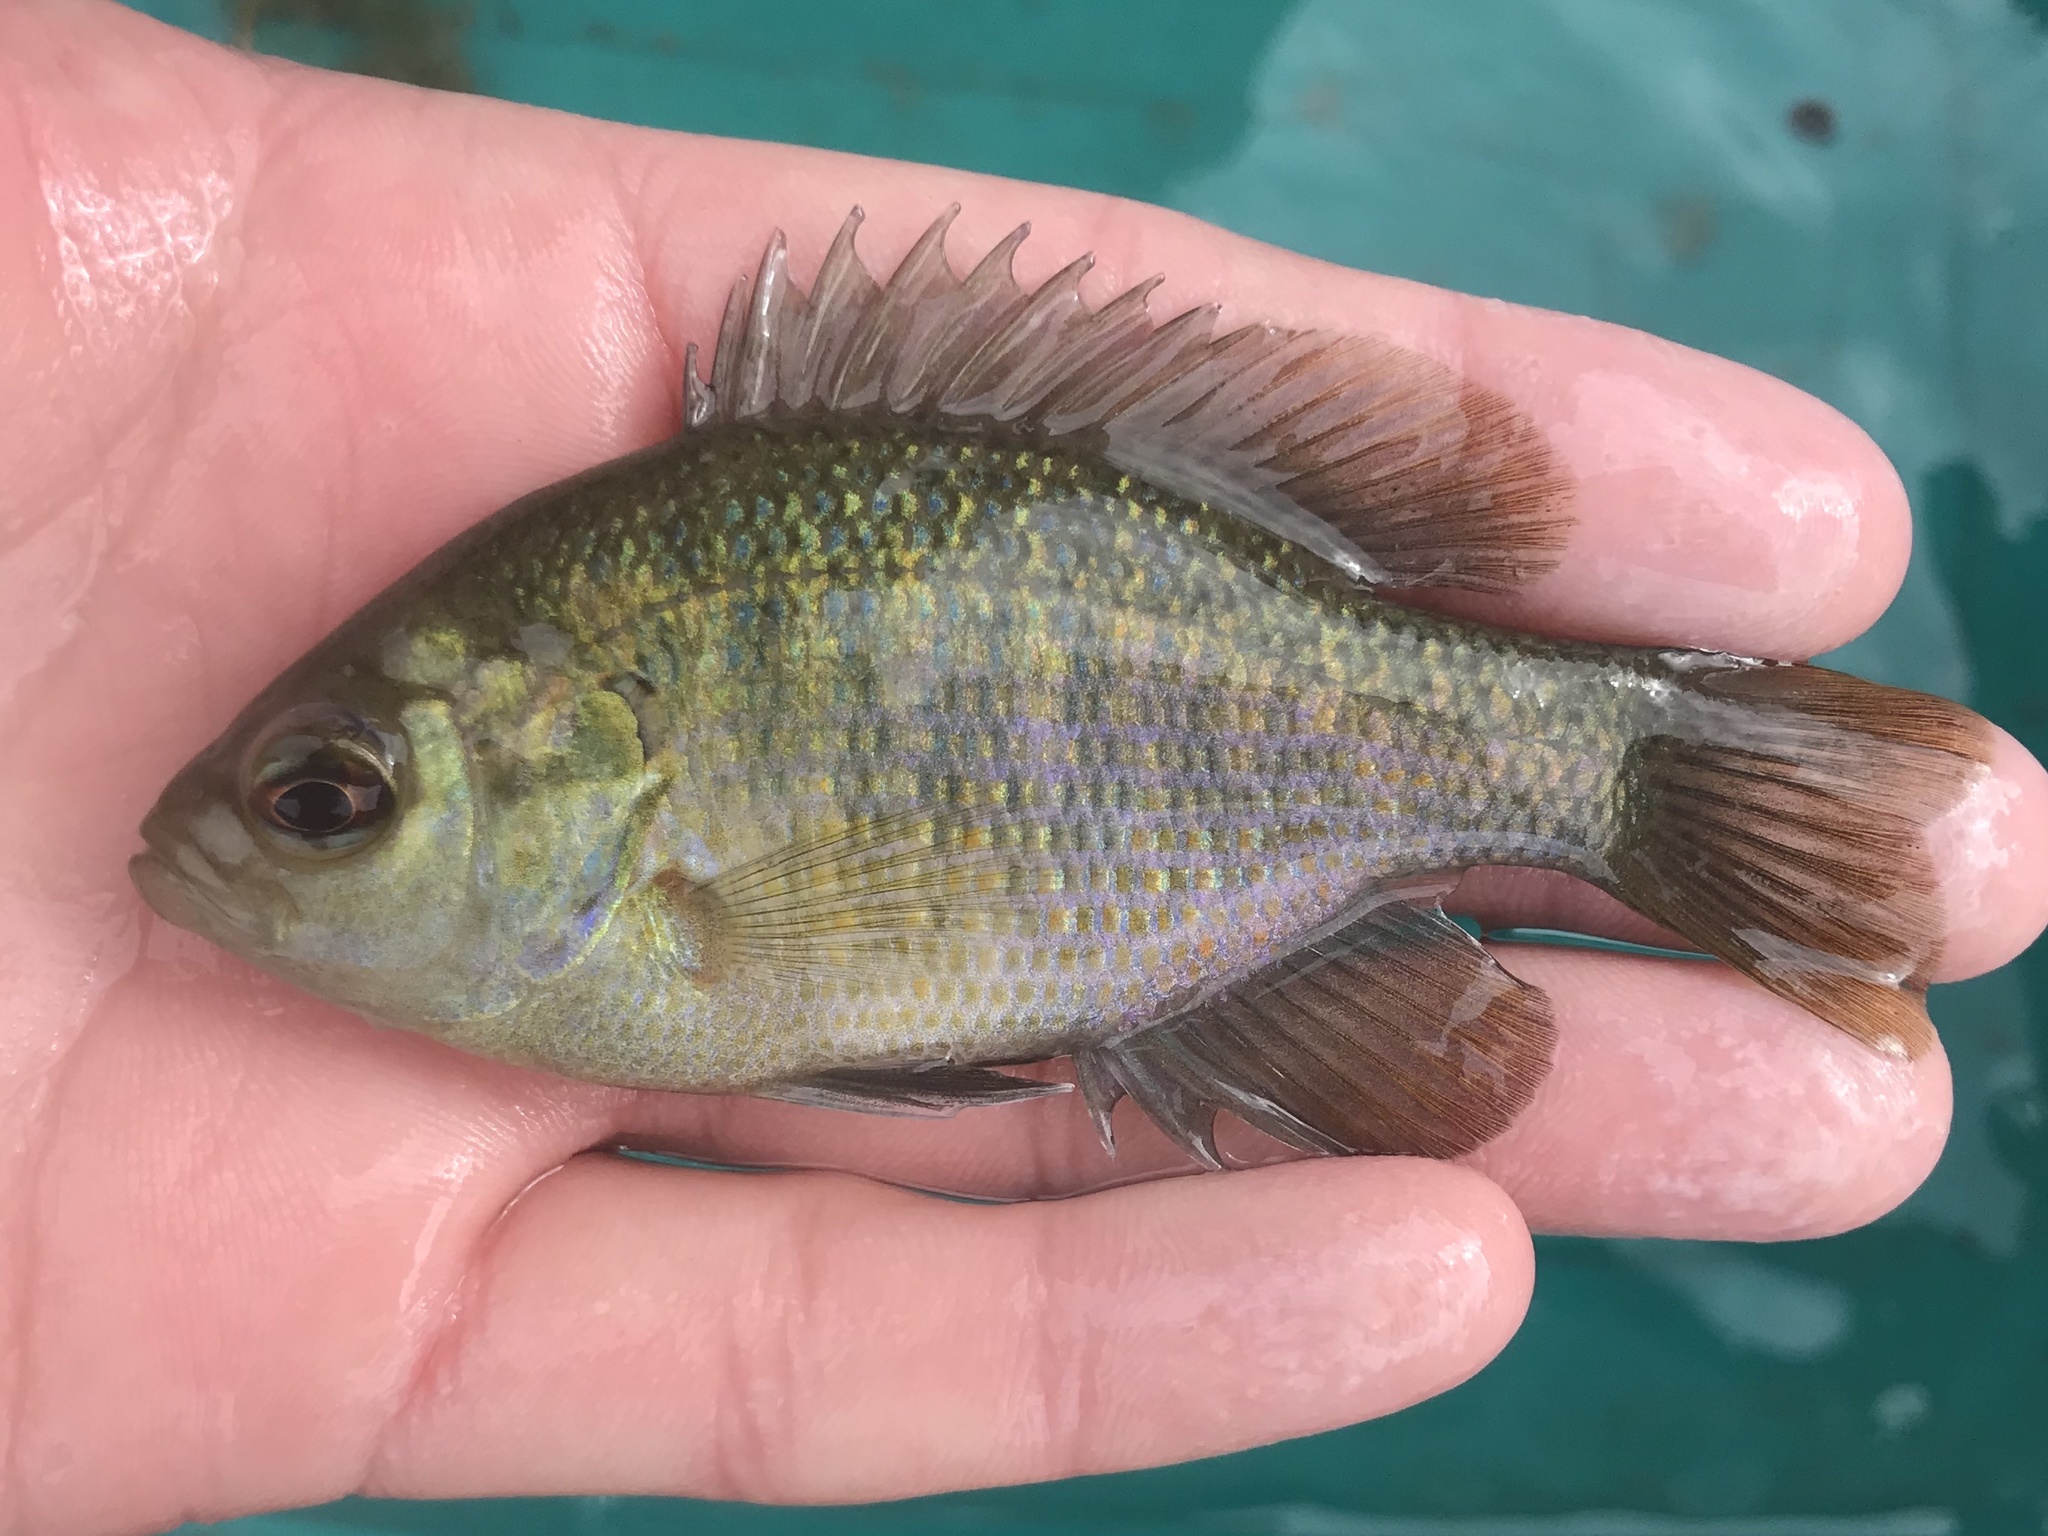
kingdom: Animalia
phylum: Chordata
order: Perciformes
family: Centrarchidae
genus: Lepomis
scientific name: Lepomis miniatus
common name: Redspotted sunfish
